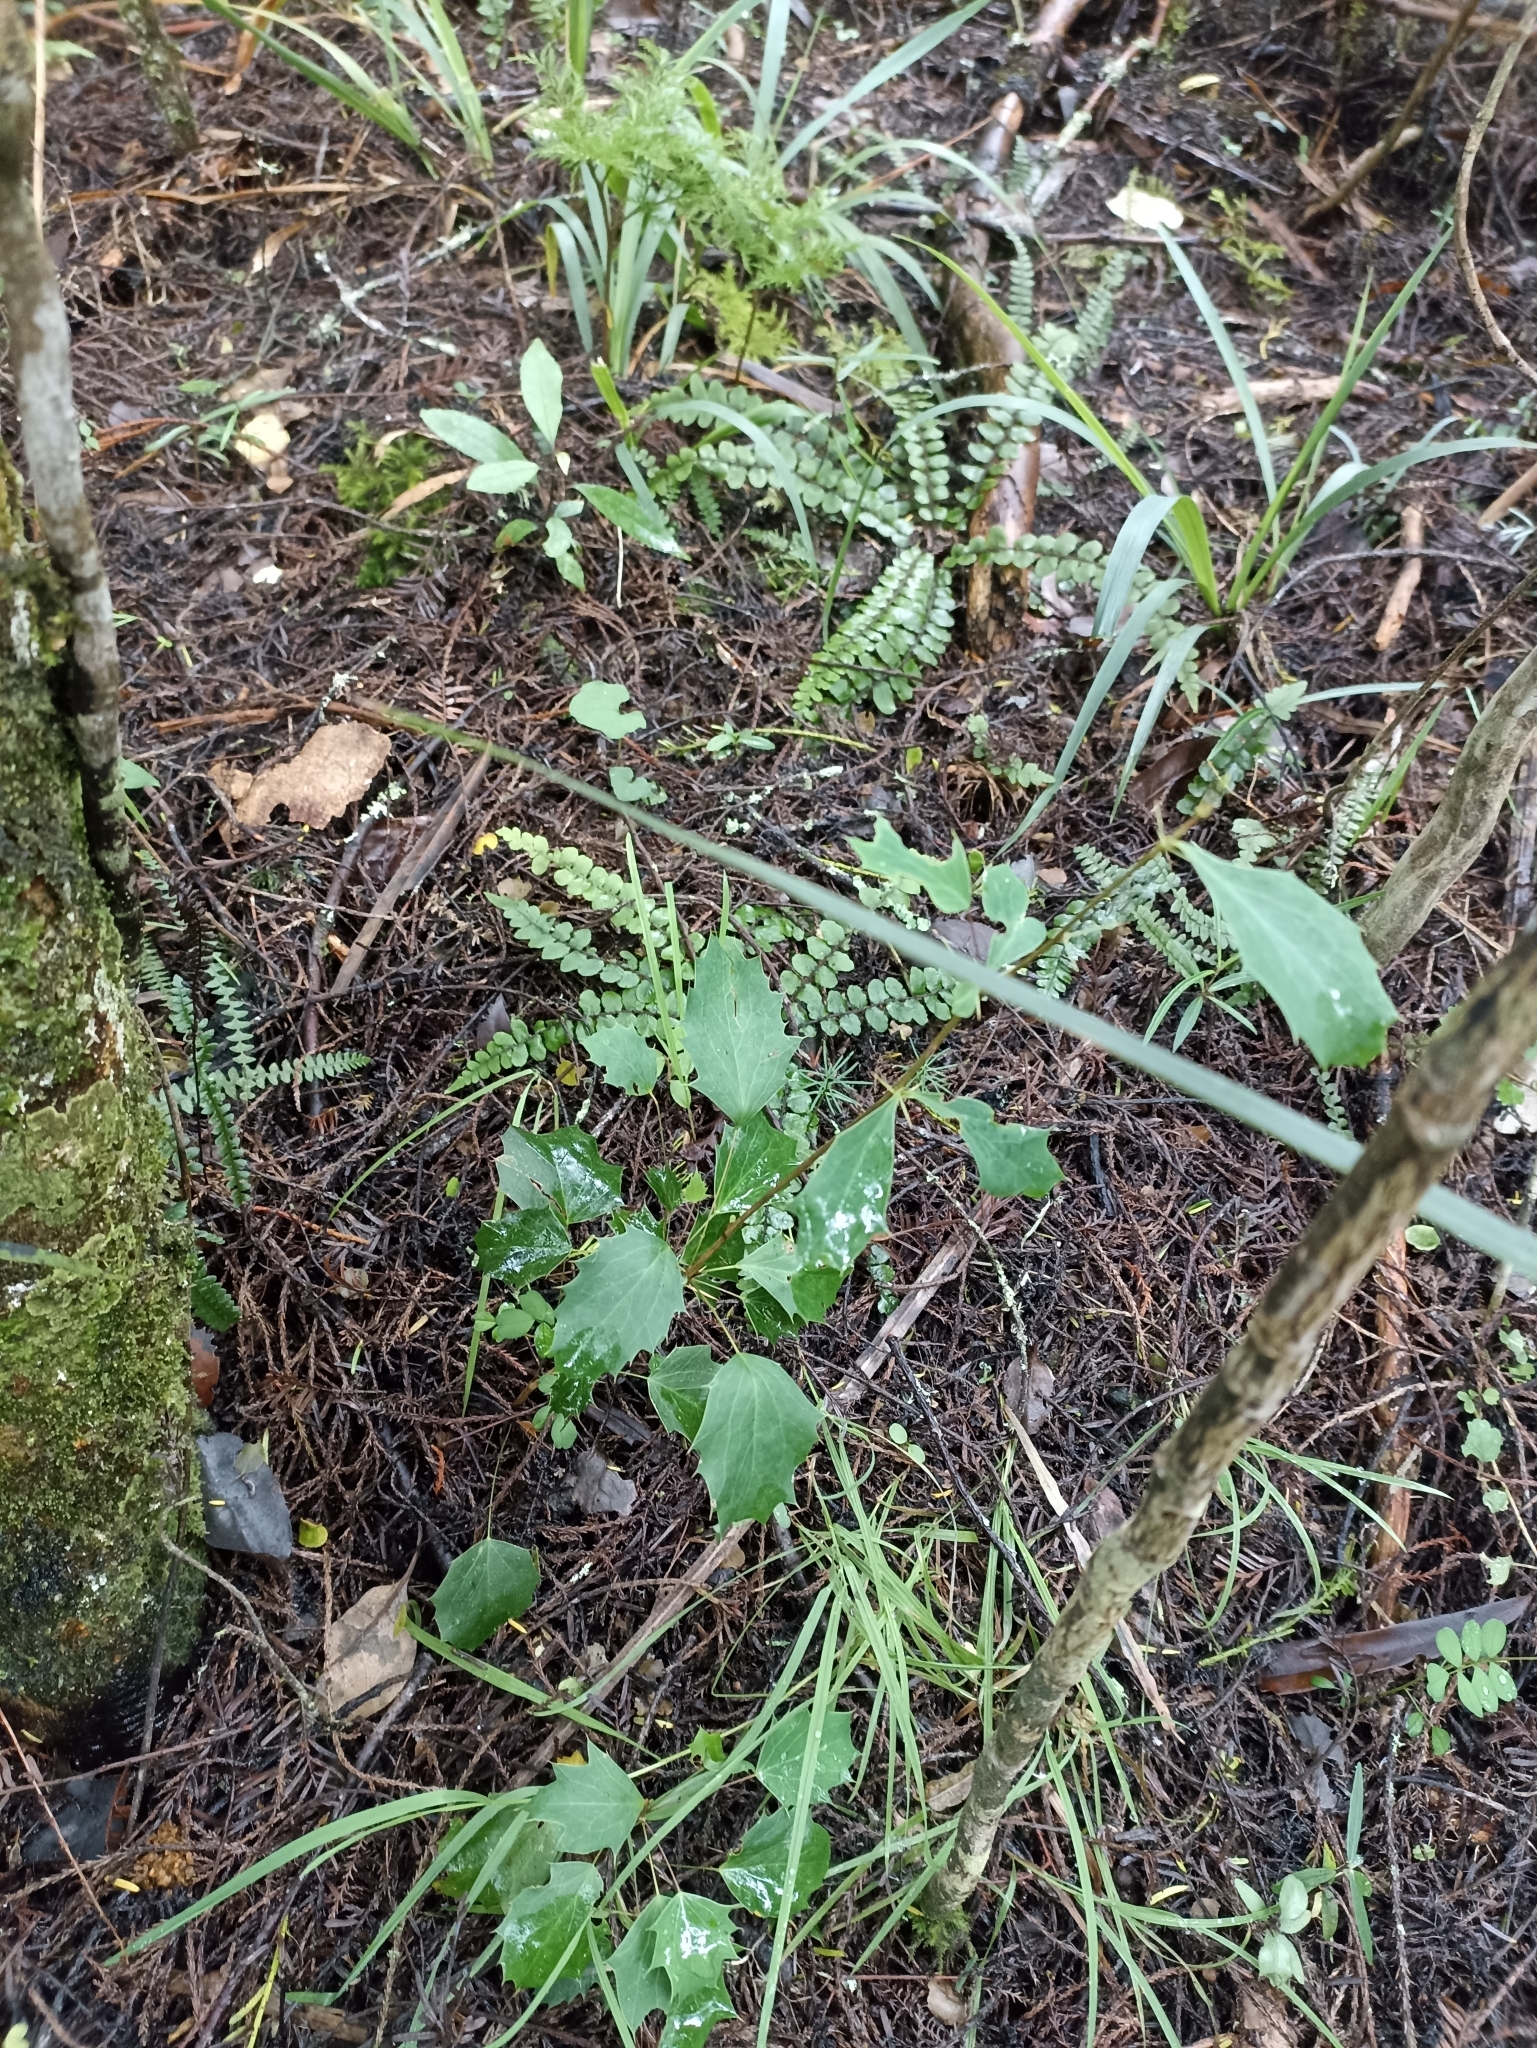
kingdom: Plantae
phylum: Tracheophyta
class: Magnoliopsida
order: Ranunculales
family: Berberidaceae
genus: Berberis
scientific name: Berberis glaucocarpa
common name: Great barberry
